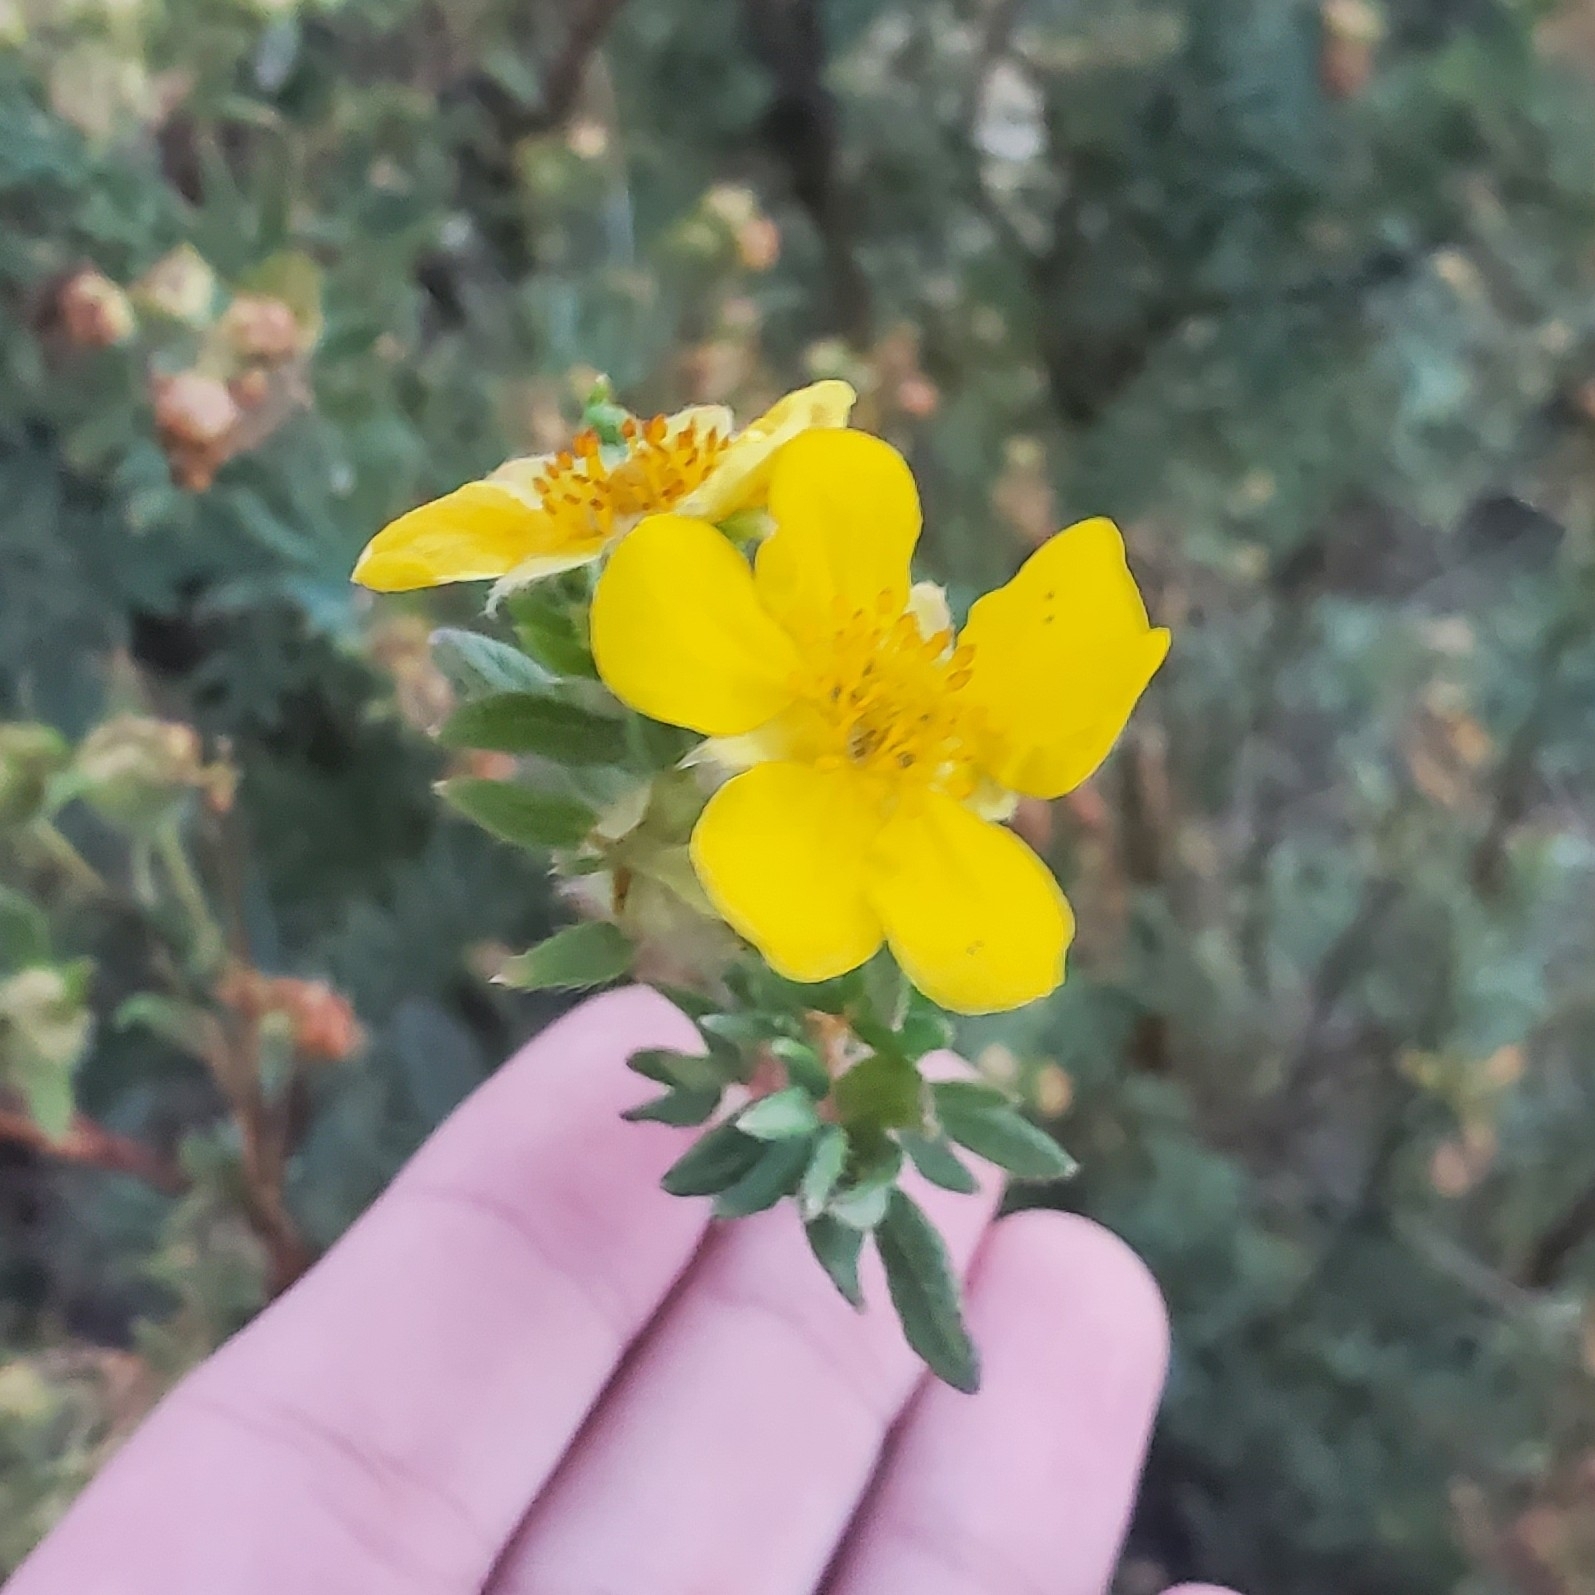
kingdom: Plantae
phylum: Tracheophyta
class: Magnoliopsida
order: Rosales
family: Rosaceae
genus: Dasiphora
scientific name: Dasiphora fruticosa
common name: Shrubby cinquefoil
